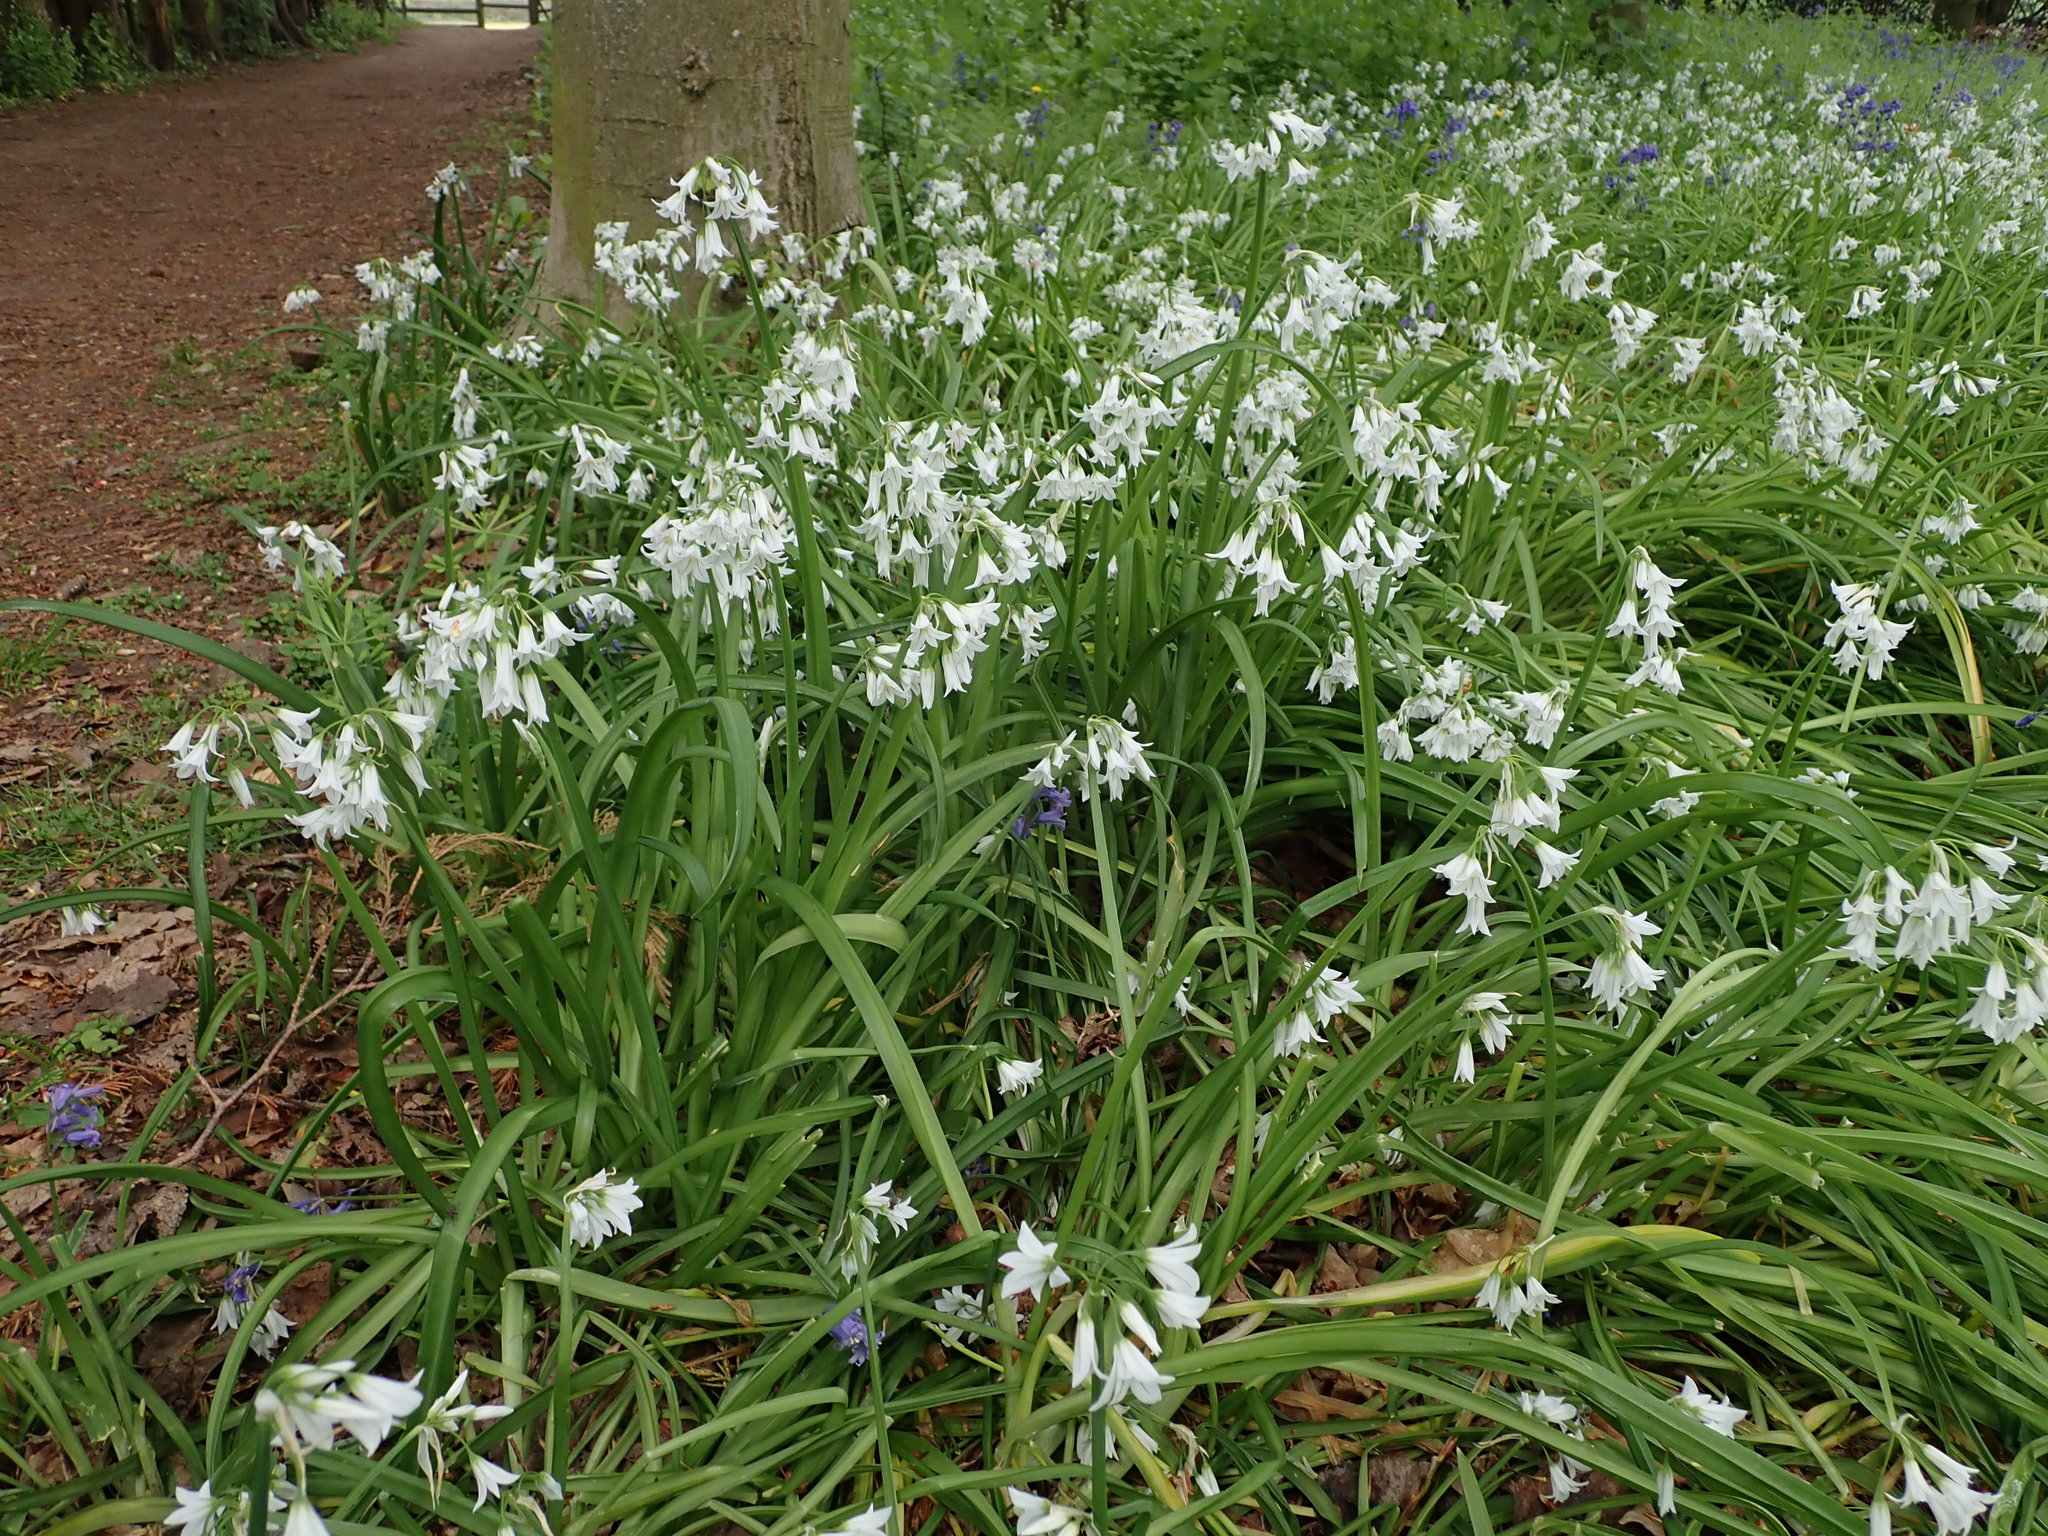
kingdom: Plantae
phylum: Tracheophyta
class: Liliopsida
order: Asparagales
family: Amaryllidaceae
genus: Allium
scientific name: Allium triquetrum
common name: Three-cornered garlic
